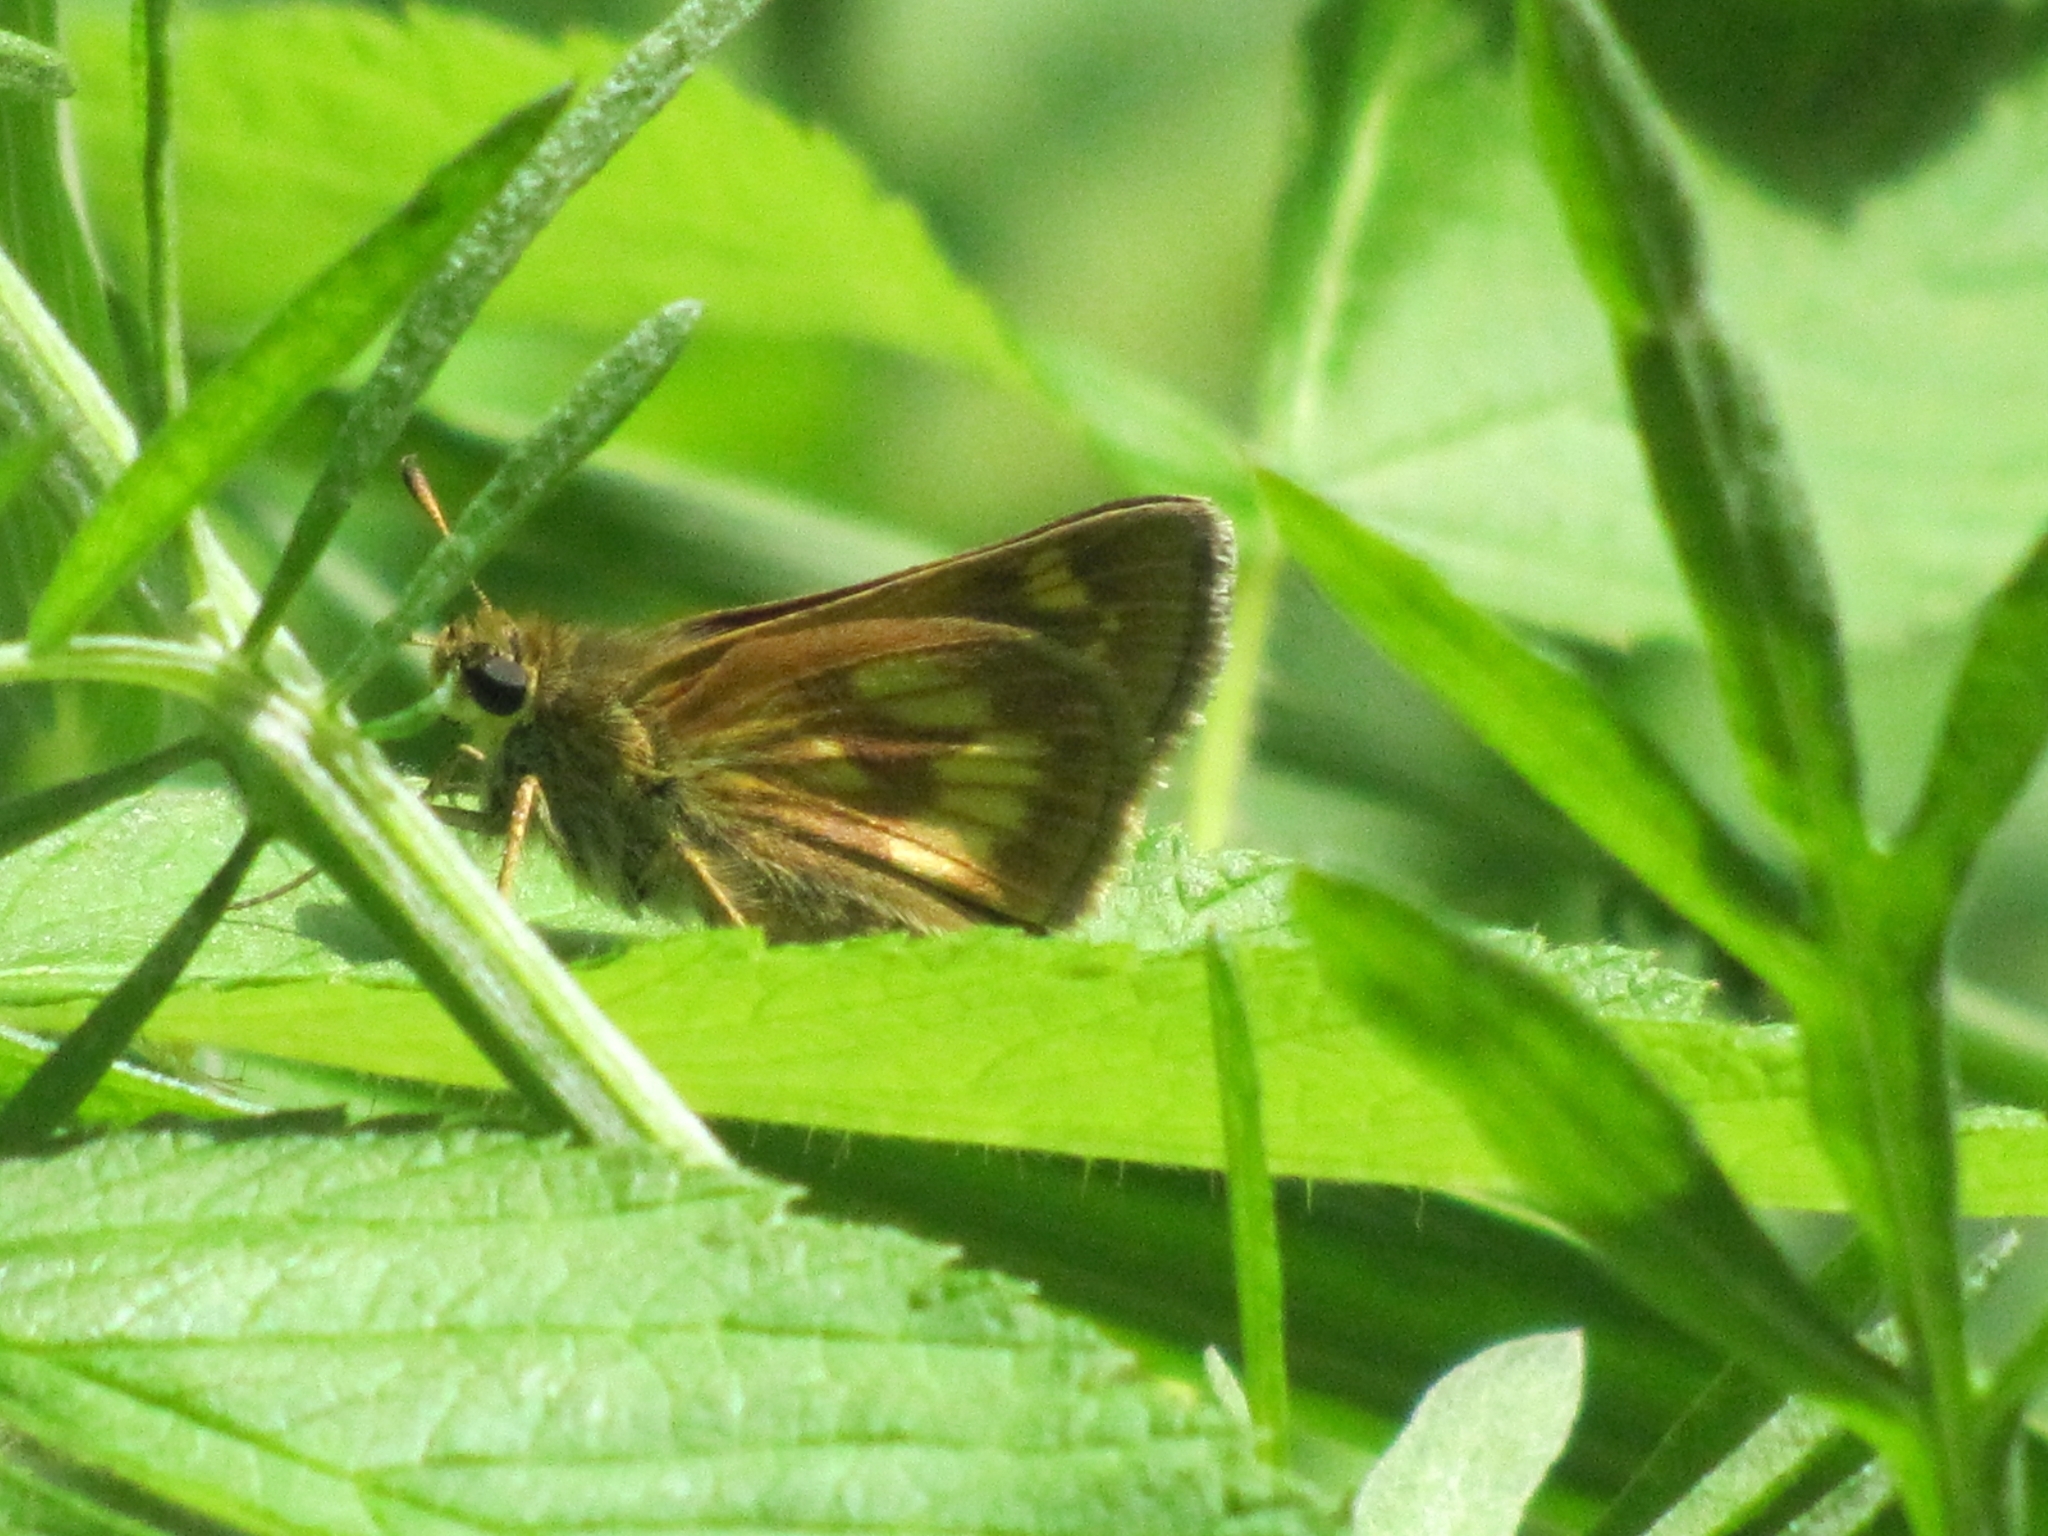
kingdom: Animalia
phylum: Arthropoda
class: Insecta
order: Lepidoptera
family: Hesperiidae
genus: Polites
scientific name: Polites mystic
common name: Long dash
